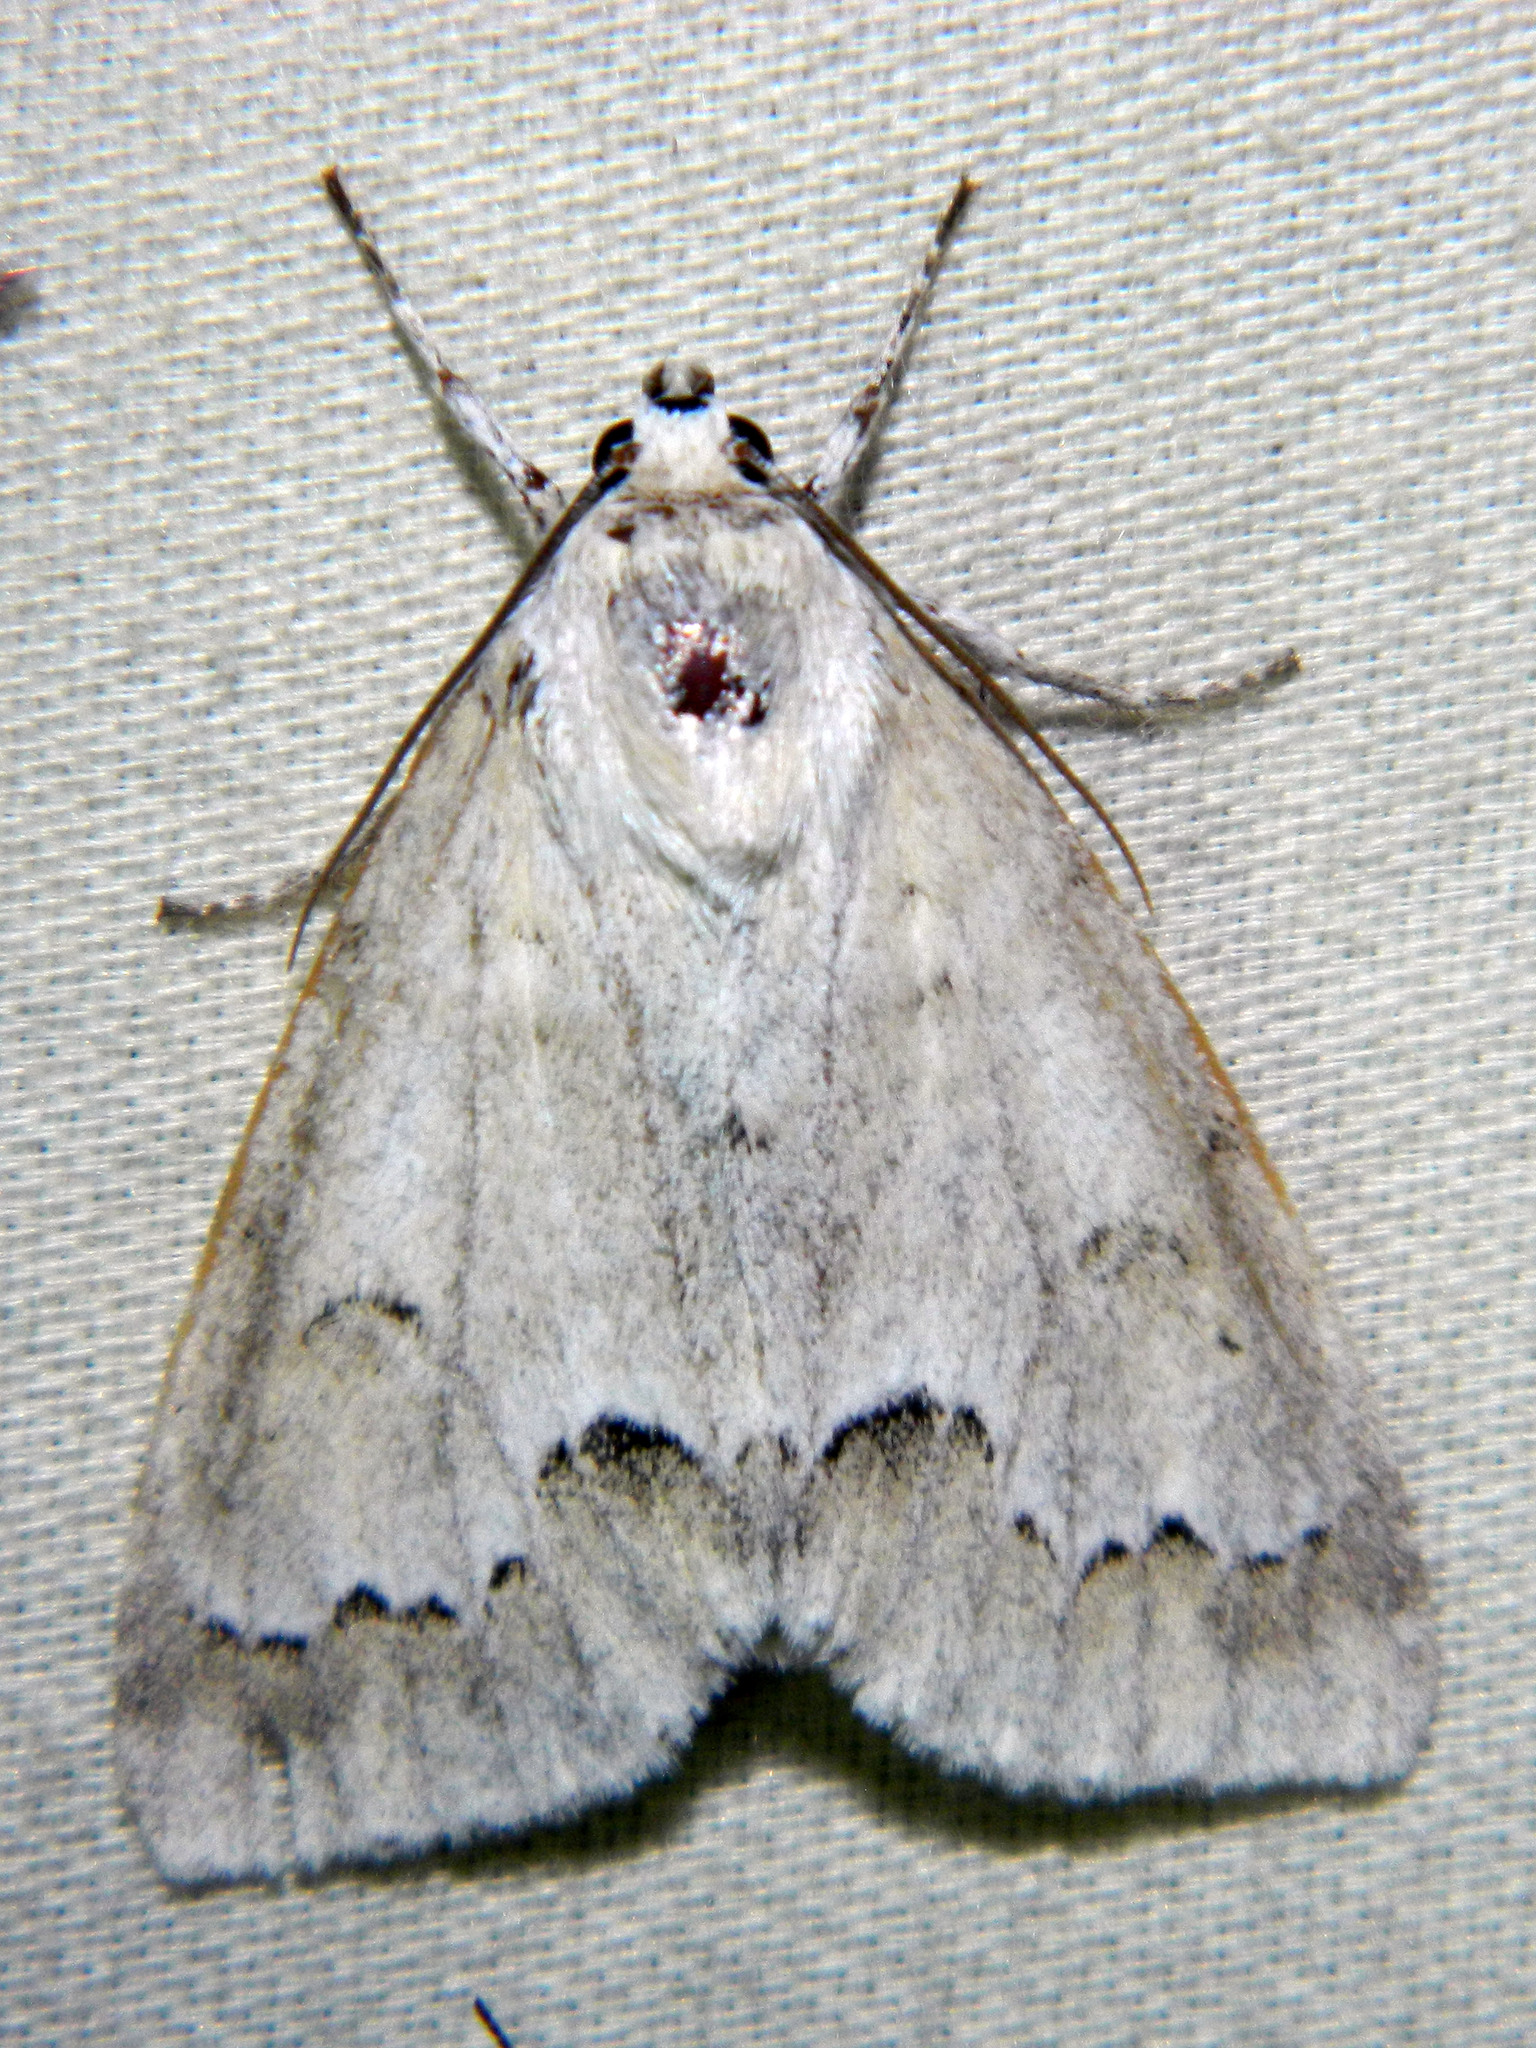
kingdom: Animalia
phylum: Arthropoda
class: Insecta
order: Lepidoptera
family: Noctuidae
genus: Acronicta
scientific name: Acronicta innotata
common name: Unmarked dagger
